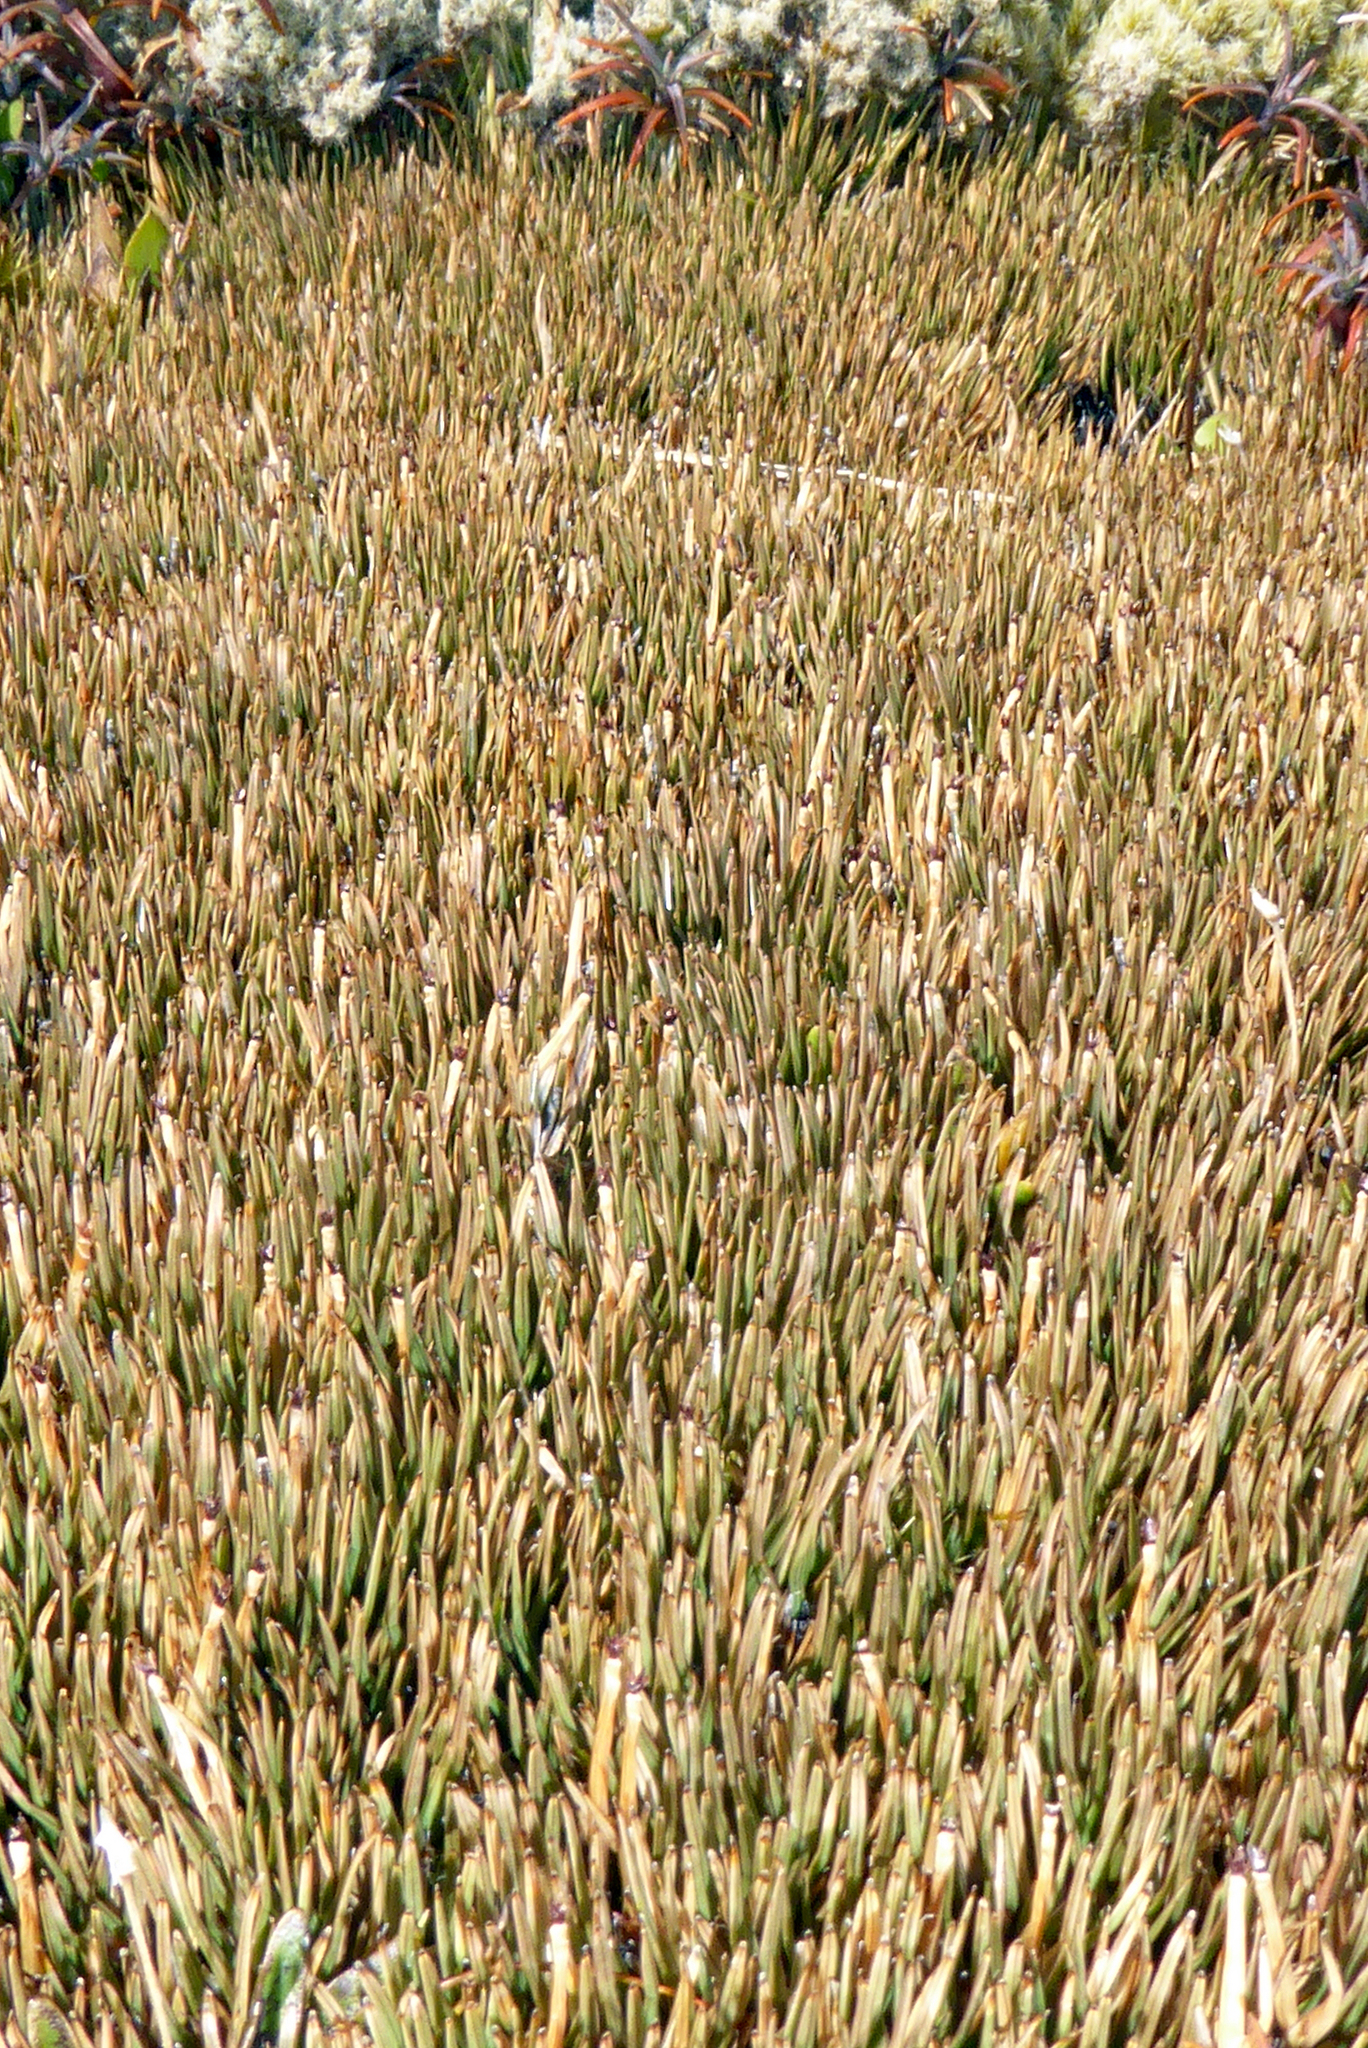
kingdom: Plantae
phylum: Tracheophyta
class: Liliopsida
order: Poales
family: Cyperaceae
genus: Oreobolus
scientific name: Oreobolus pectinatus
